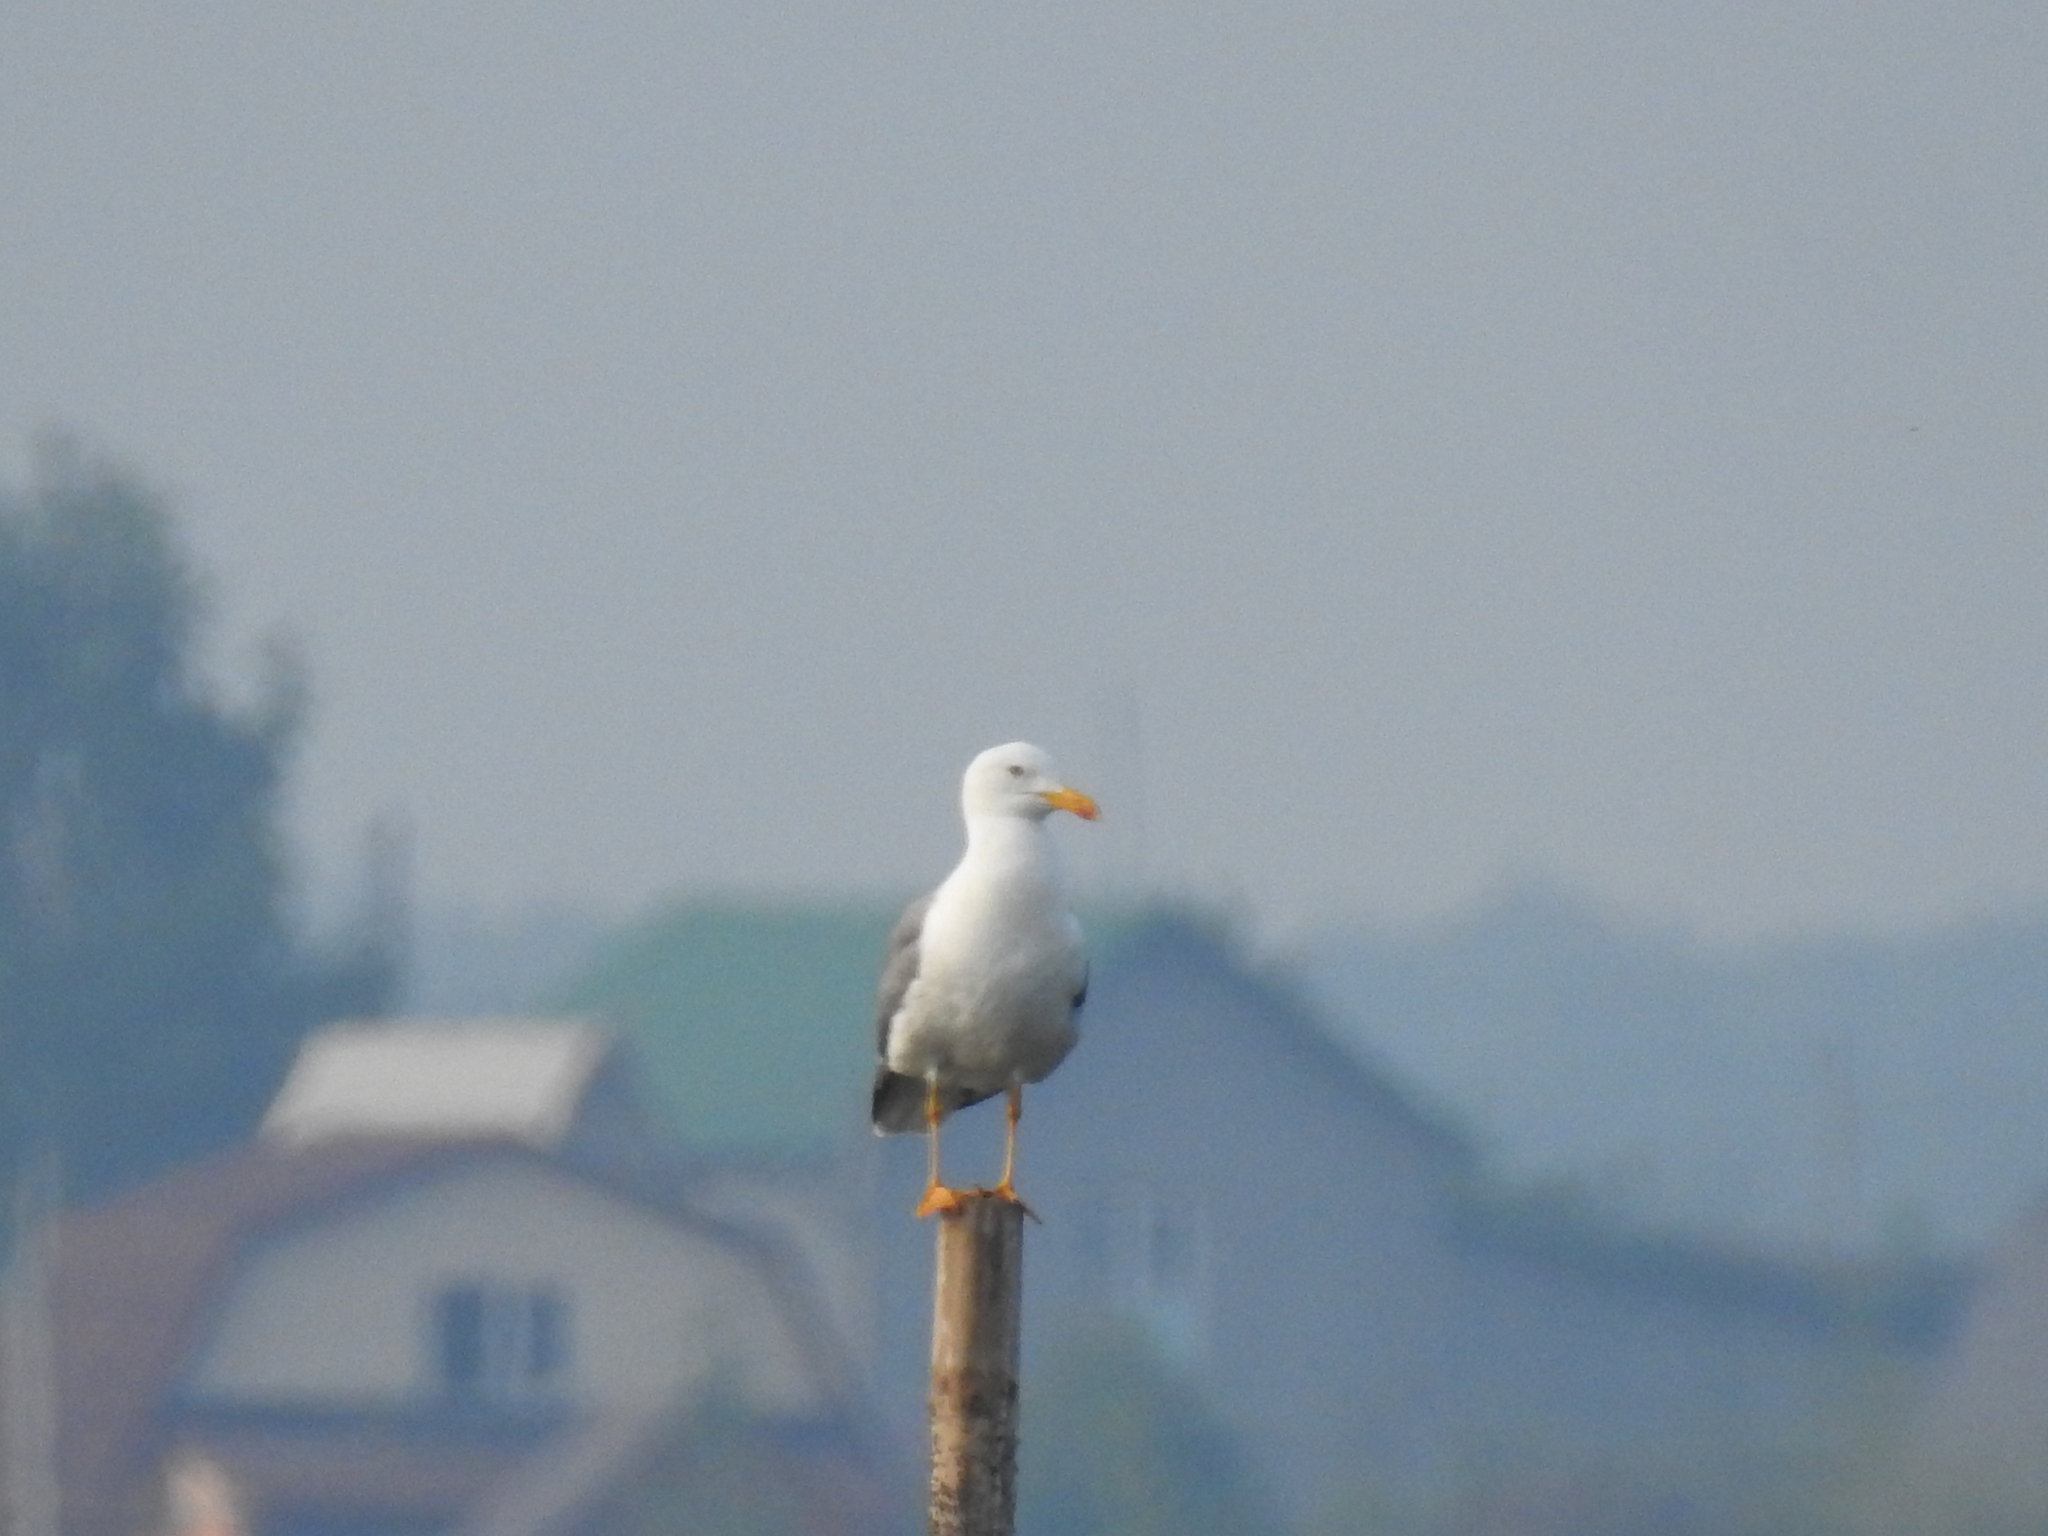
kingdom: Animalia
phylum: Chordata
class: Aves
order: Charadriiformes
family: Laridae
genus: Larus
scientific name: Larus fuscus
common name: Lesser black-backed gull
